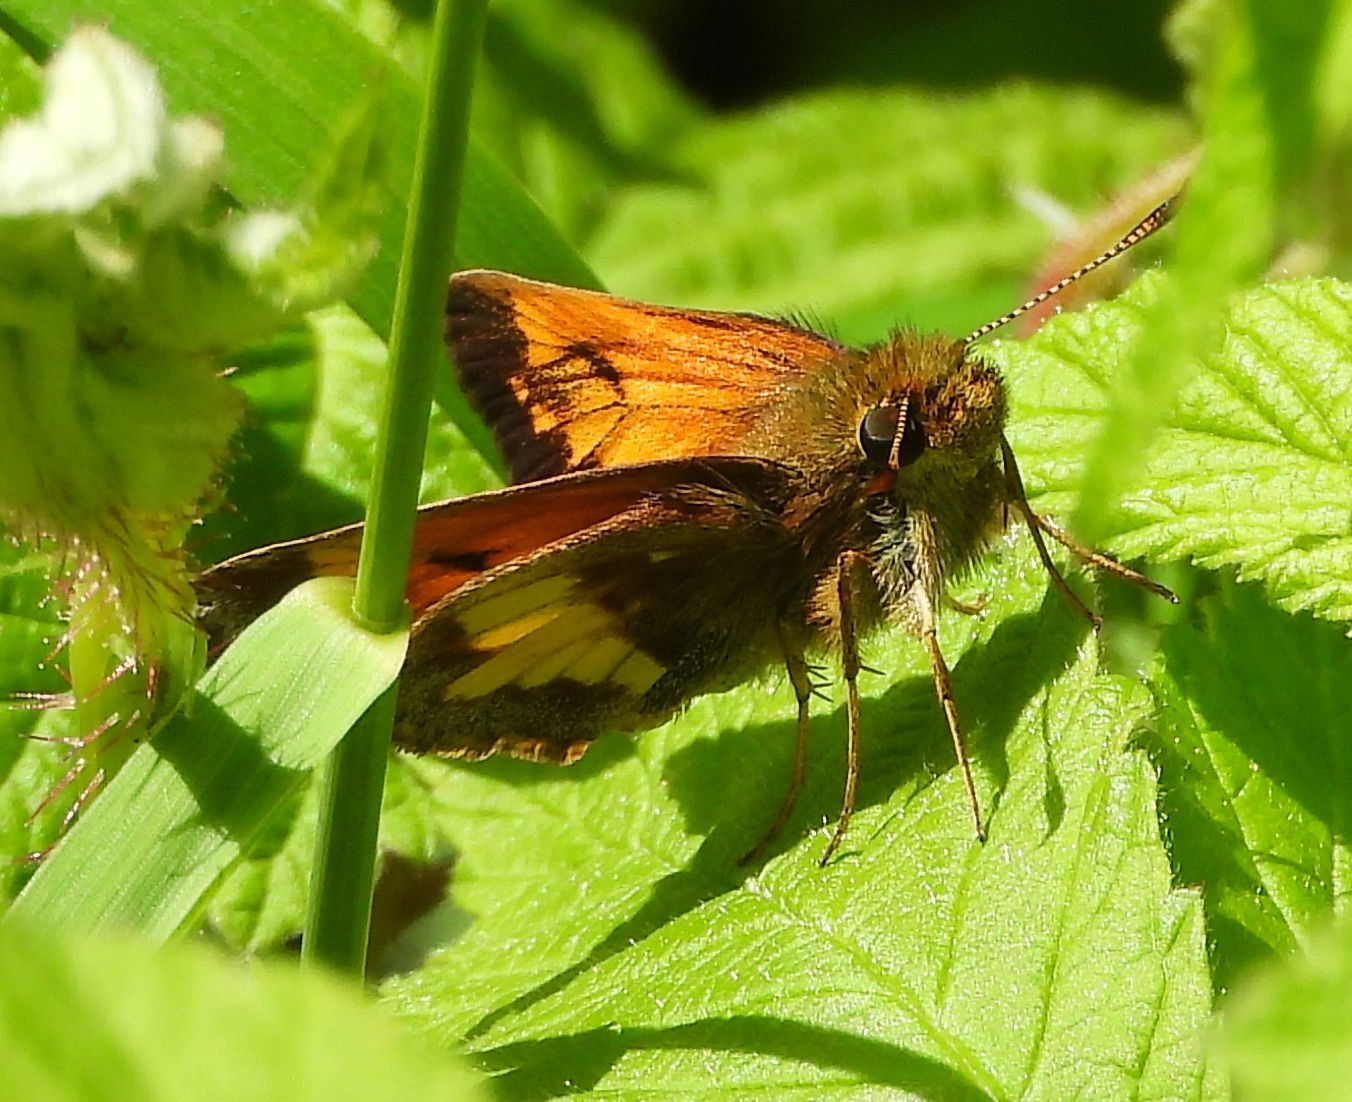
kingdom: Animalia
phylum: Arthropoda
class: Insecta
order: Lepidoptera
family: Hesperiidae
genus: Lon
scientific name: Lon hobomok
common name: Hobomok skipper
